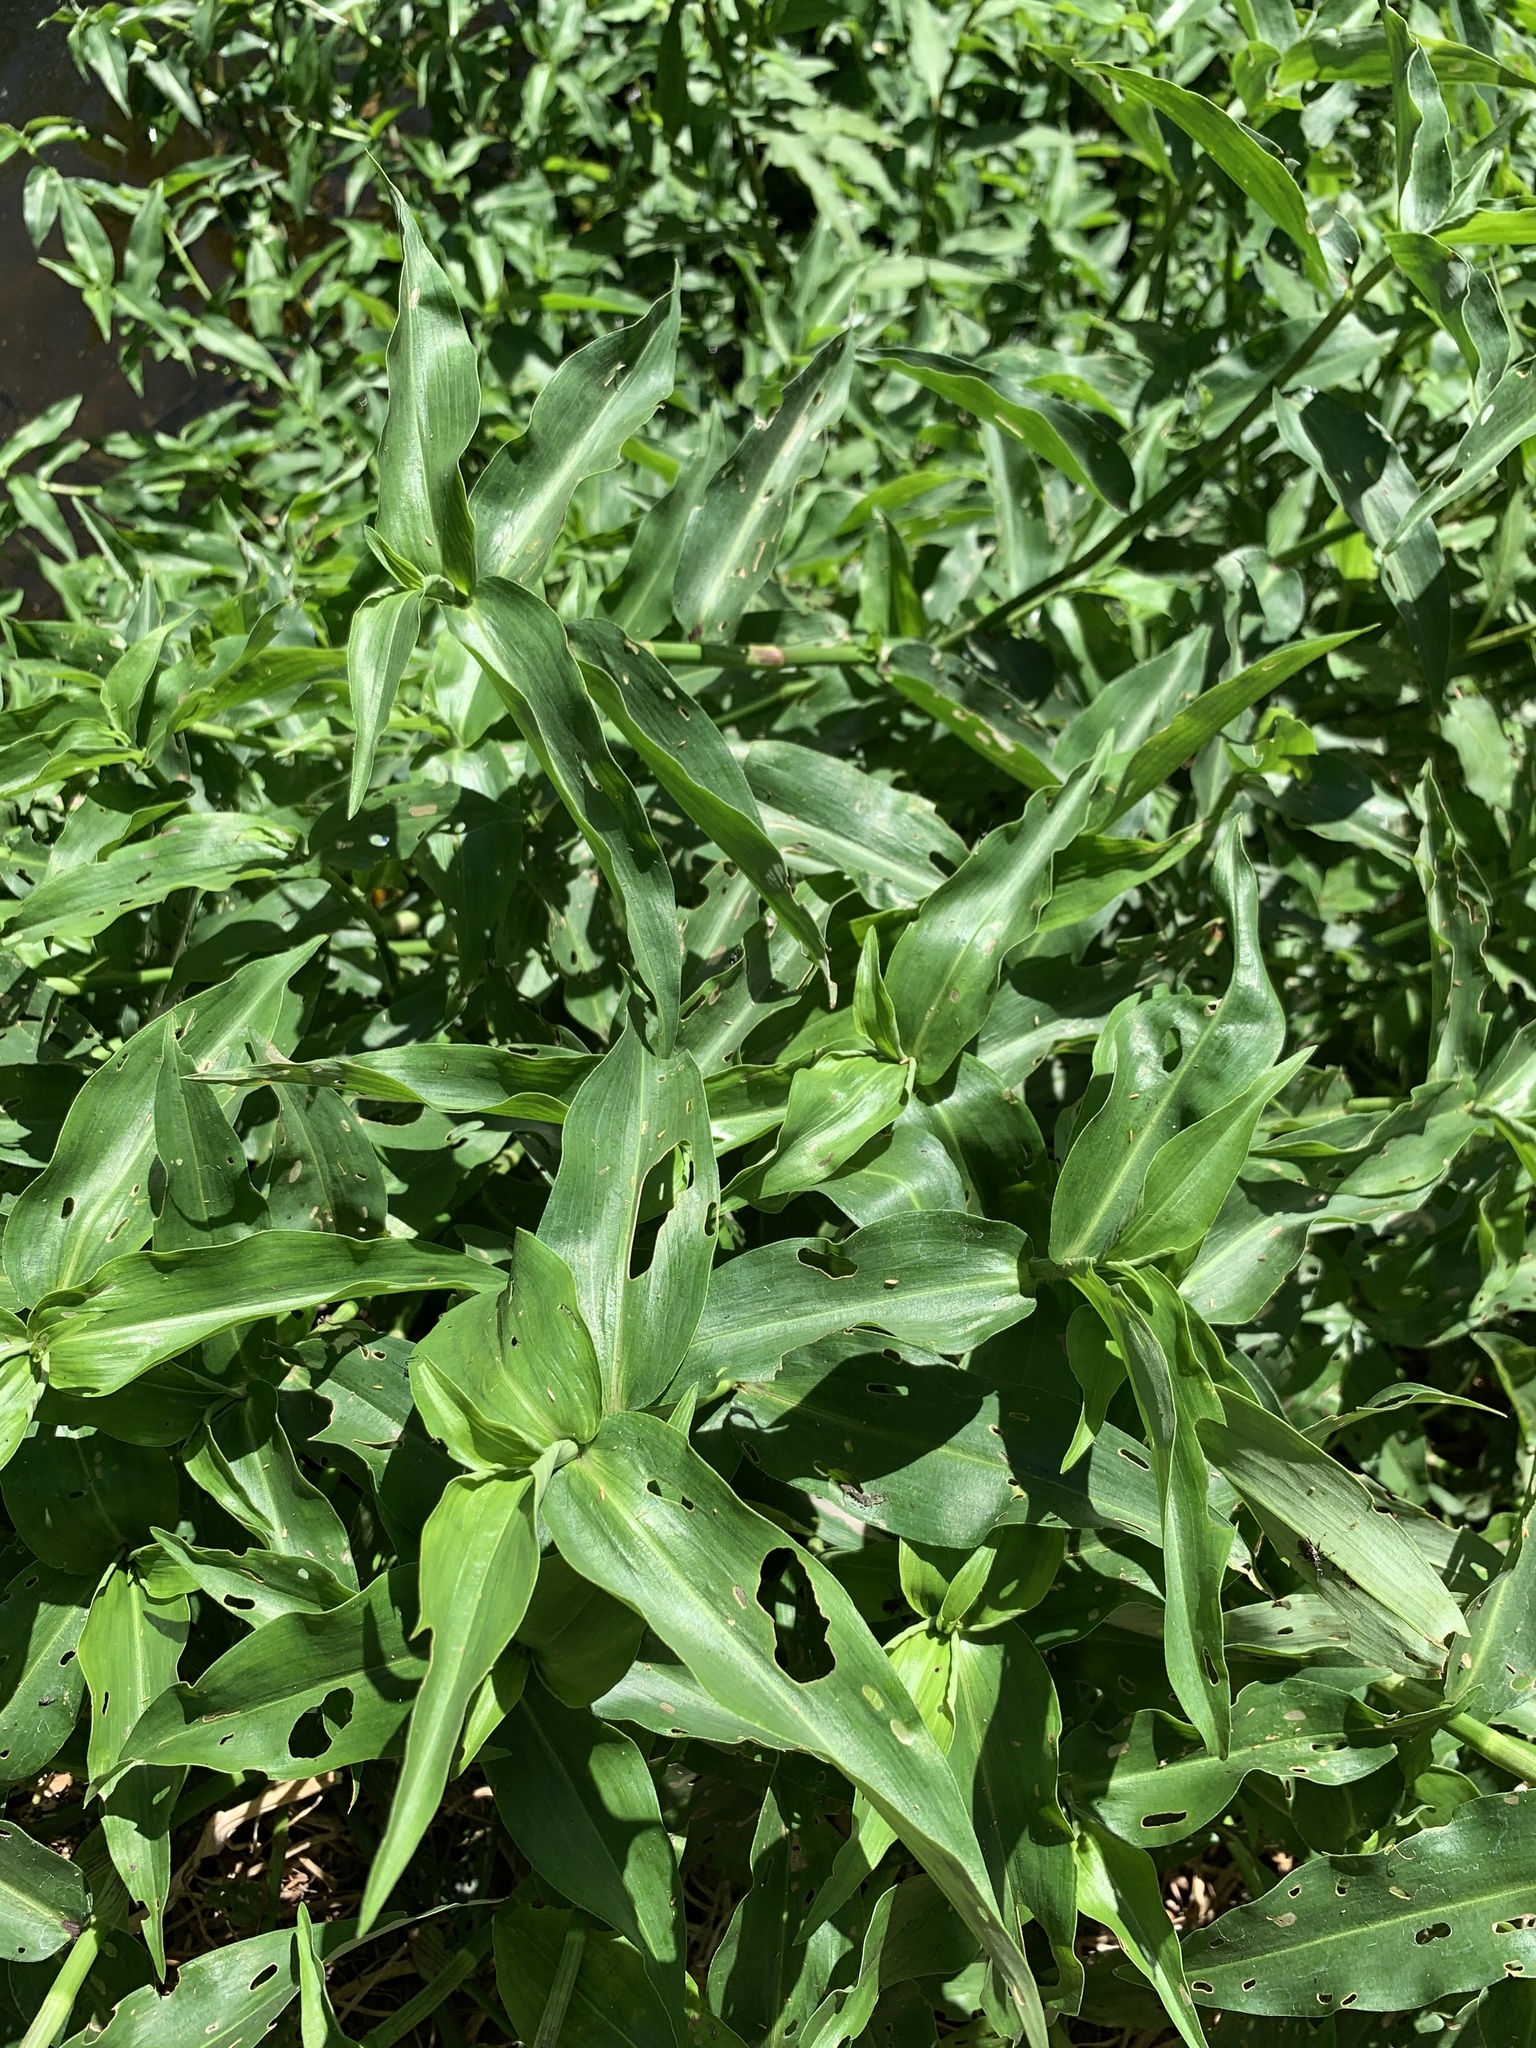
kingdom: Plantae
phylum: Tracheophyta
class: Liliopsida
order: Commelinales
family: Commelinaceae
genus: Commelina
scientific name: Commelina diffusa
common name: Climbing dayflower
